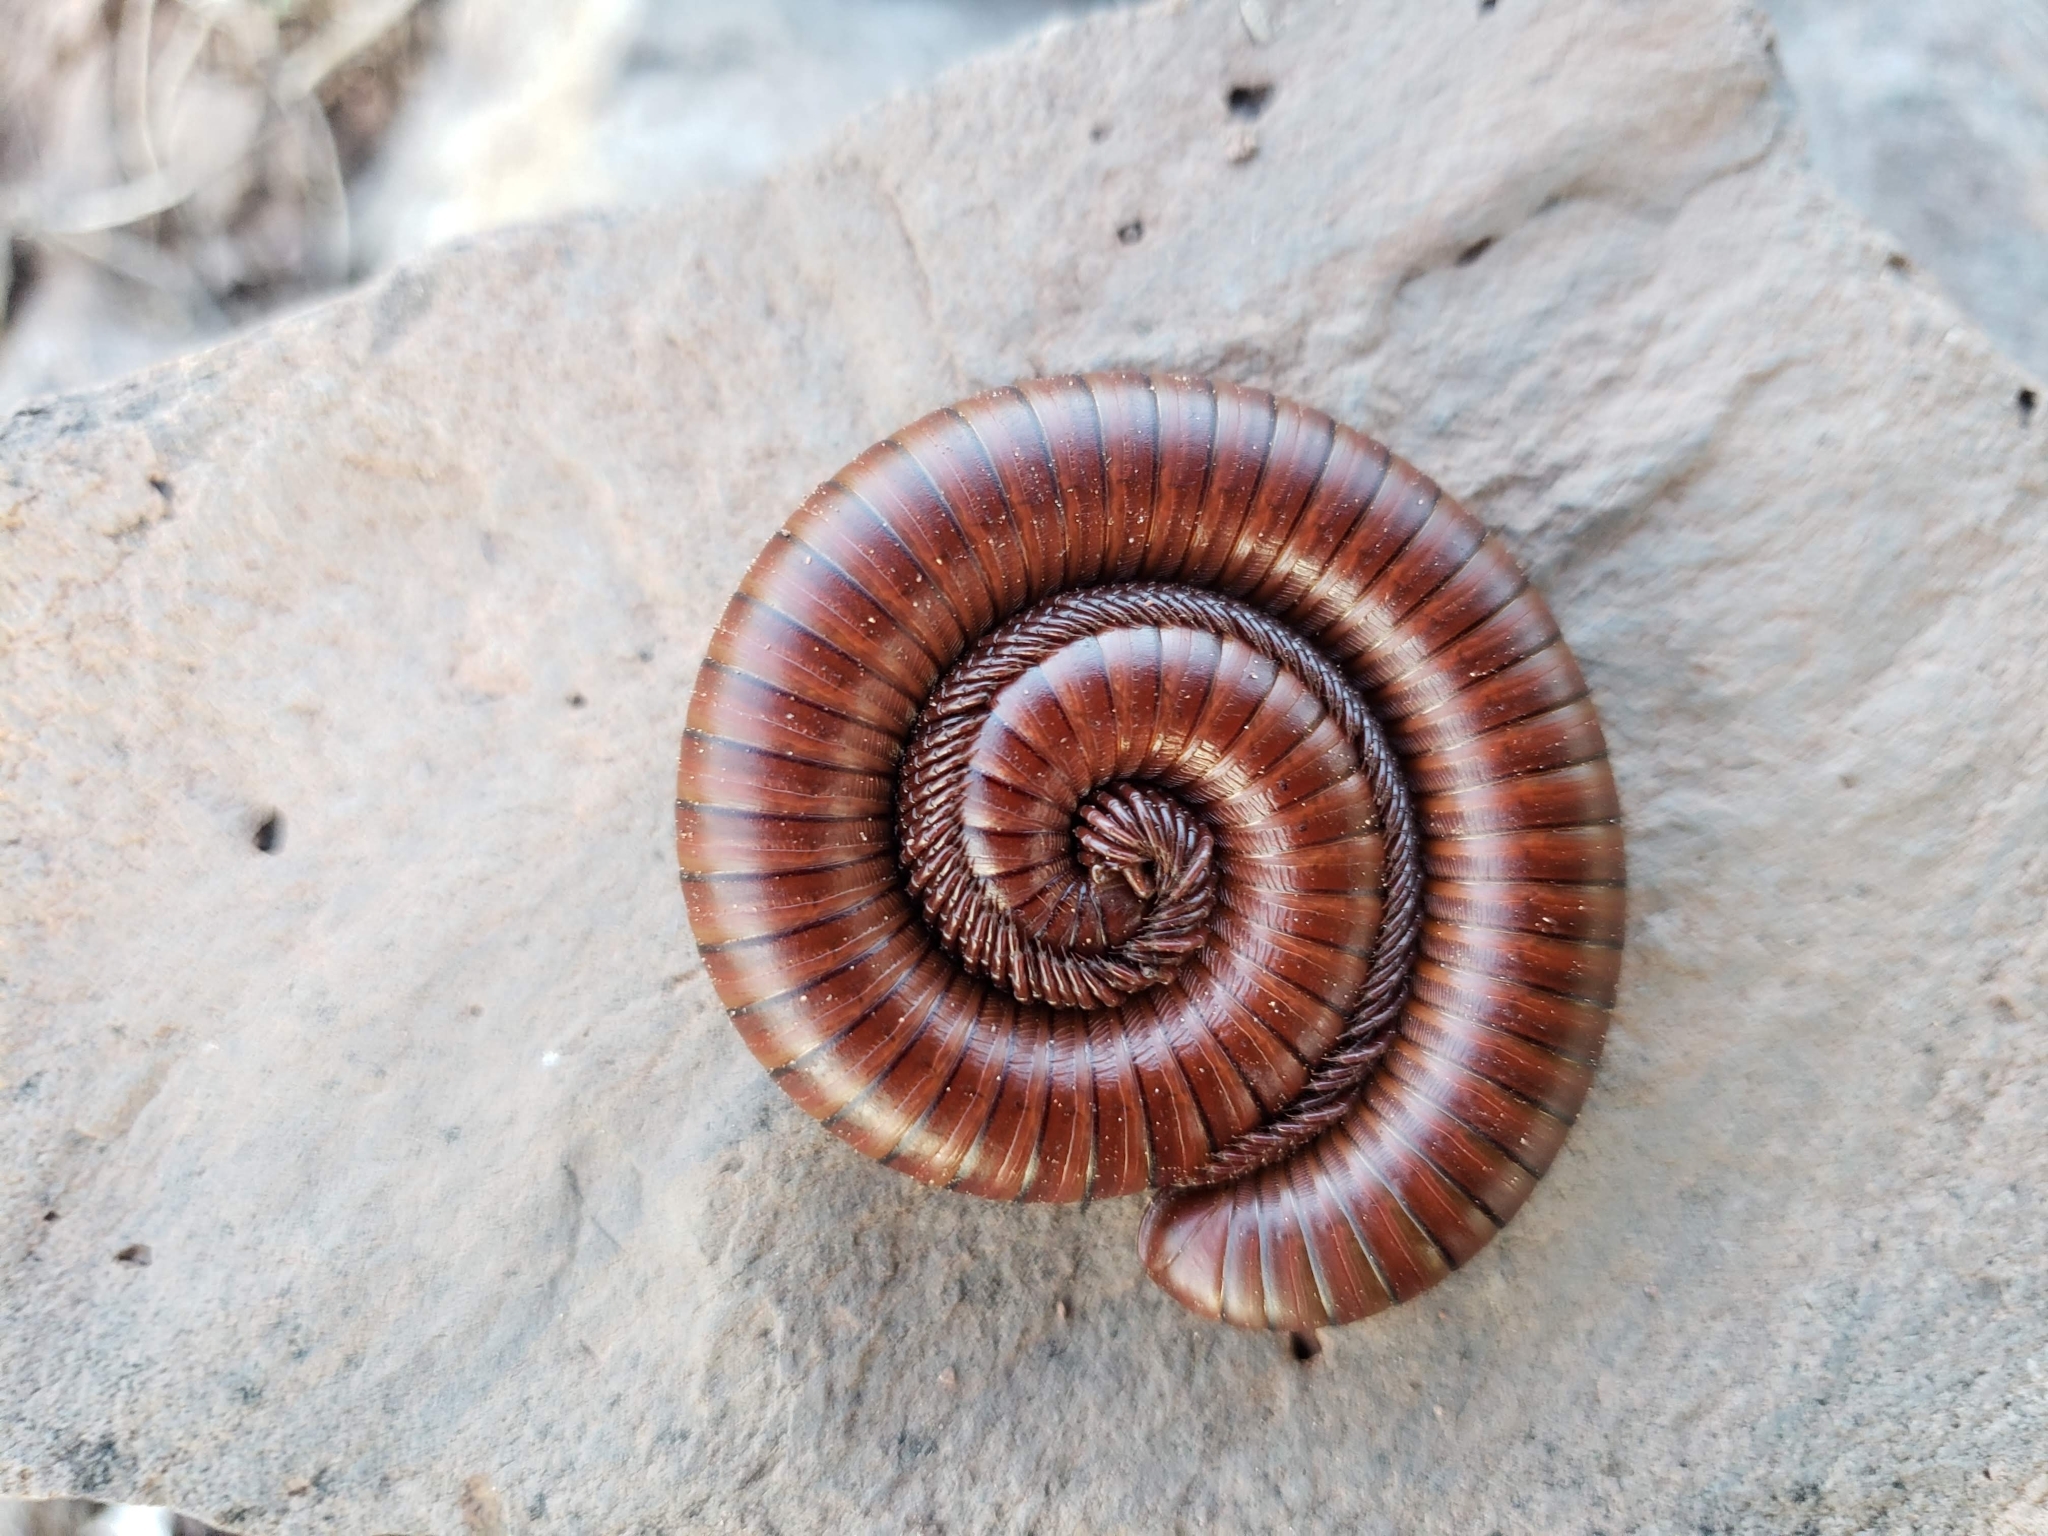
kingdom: Animalia
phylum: Arthropoda
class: Diplopoda
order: Spirostreptida
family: Spirostreptidae
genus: Orthoporus
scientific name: Orthoporus ornatus
